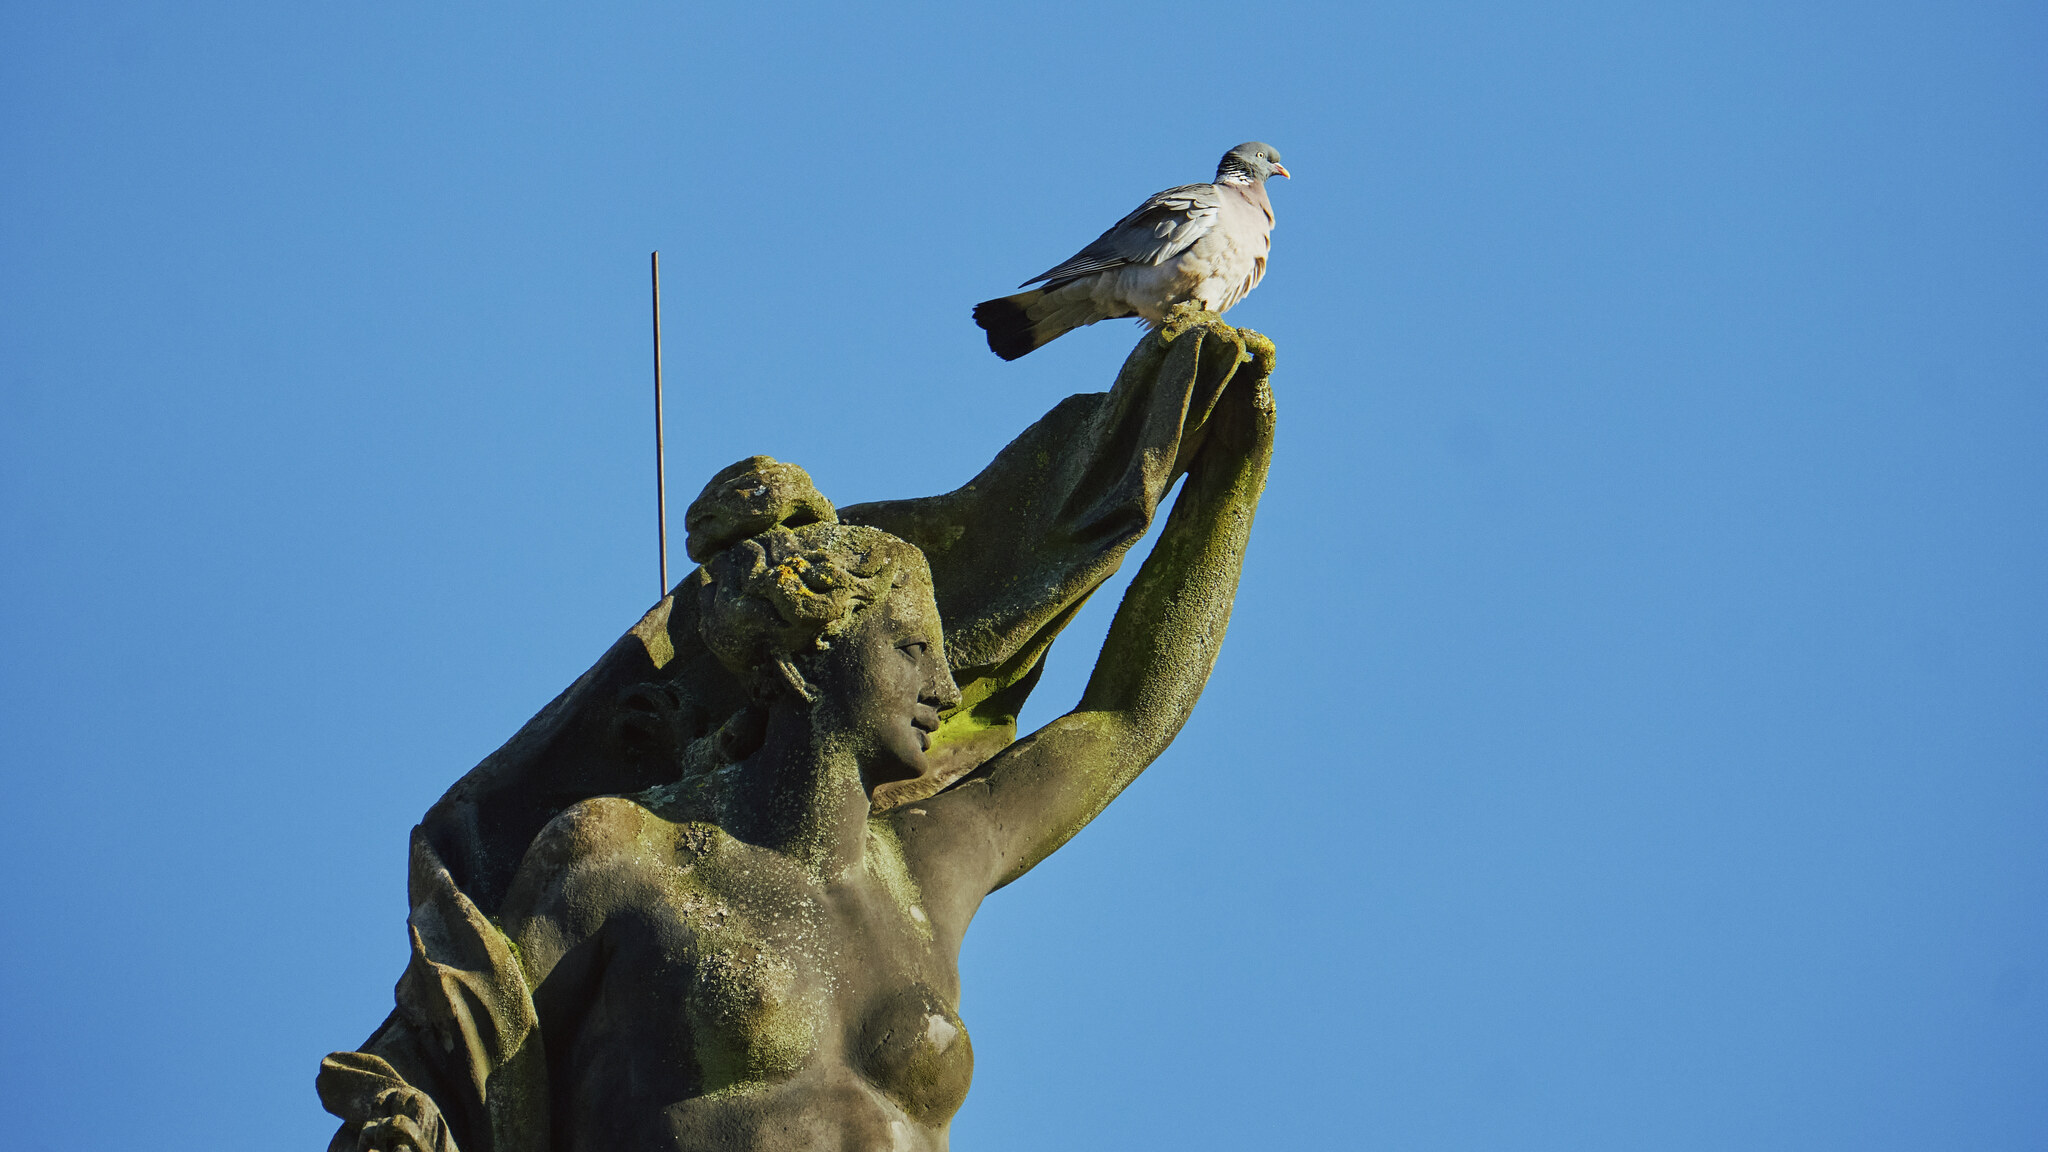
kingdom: Animalia
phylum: Chordata
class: Aves
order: Columbiformes
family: Columbidae
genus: Columba
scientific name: Columba palumbus
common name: Common wood pigeon
